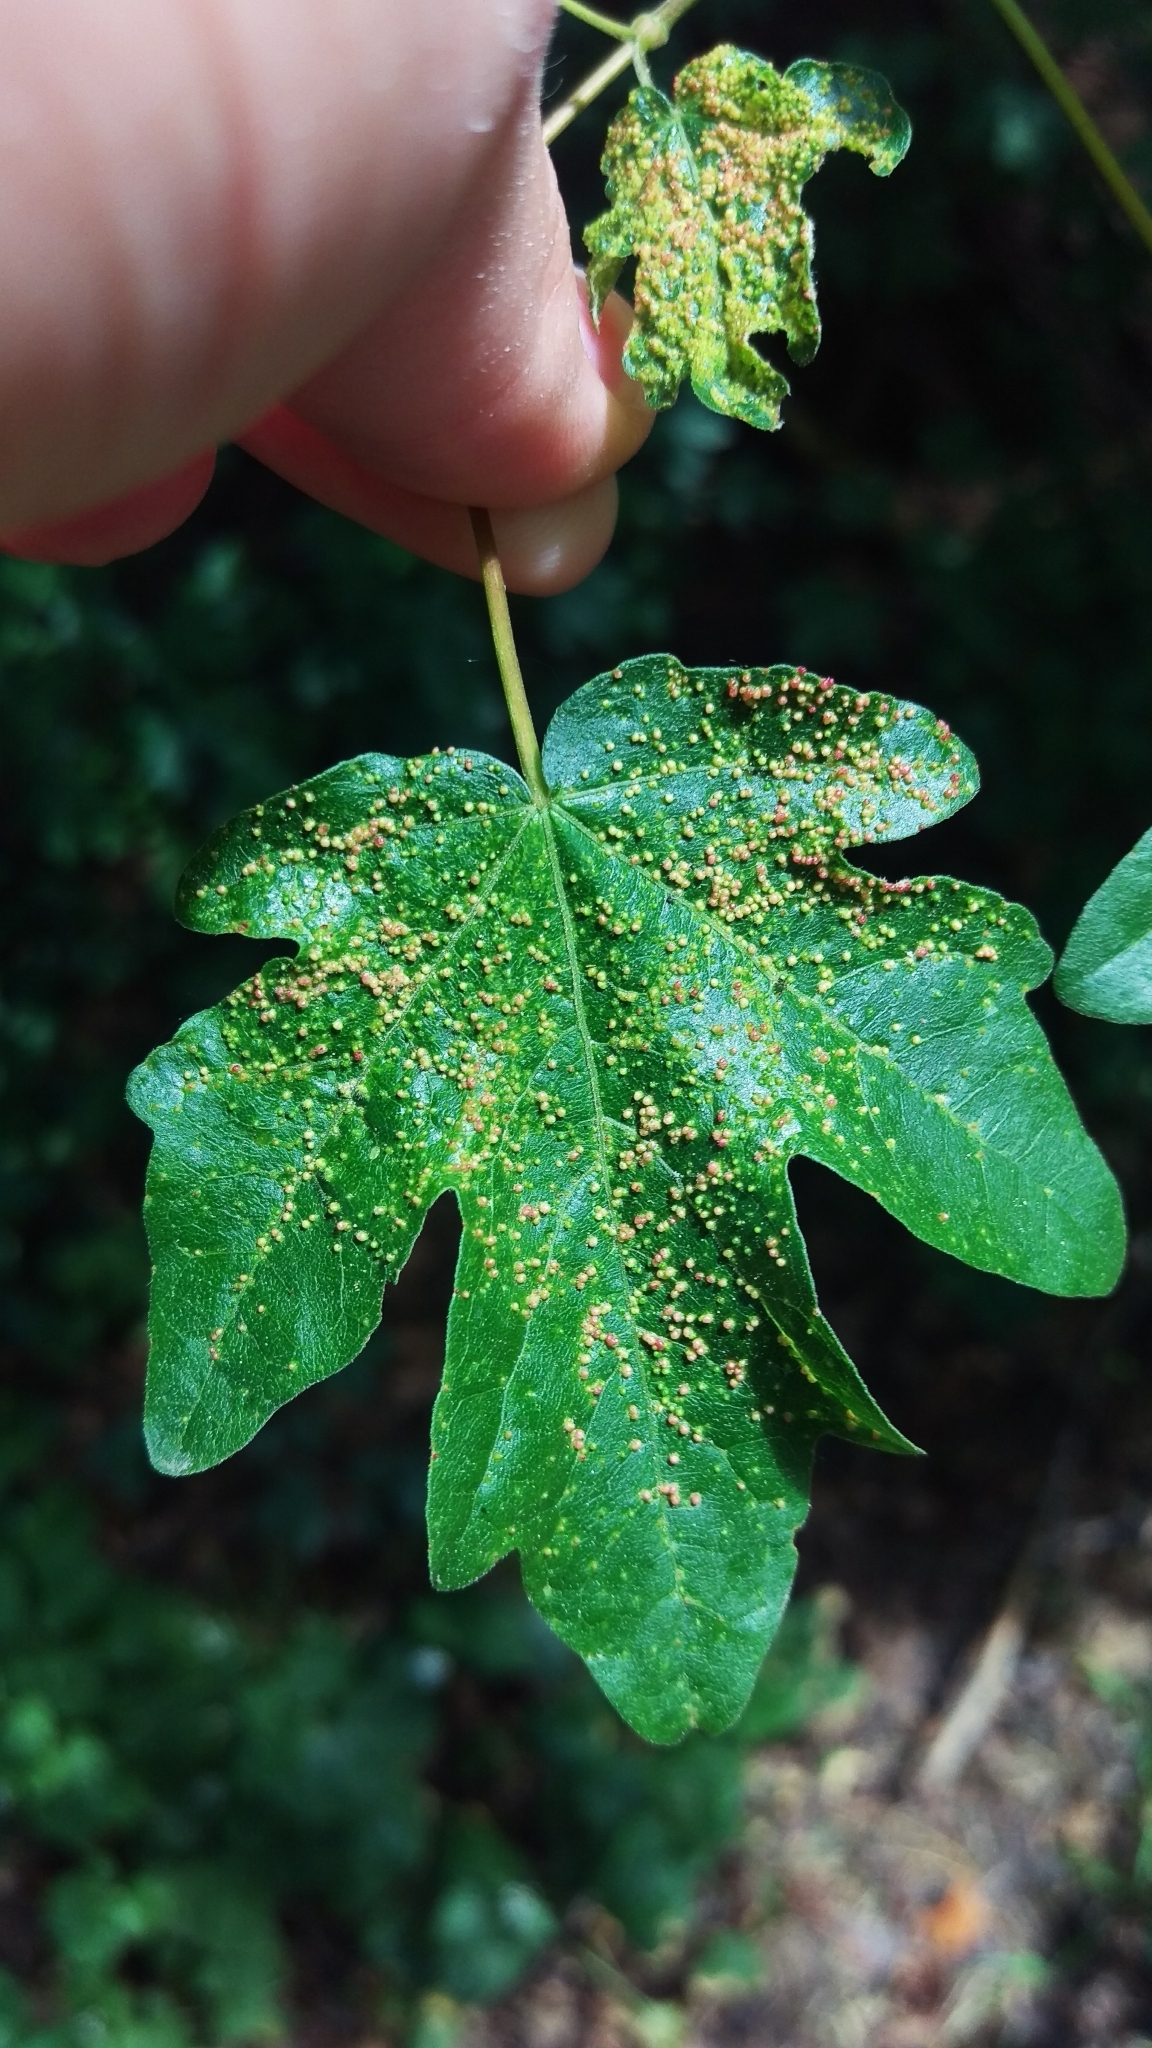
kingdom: Animalia
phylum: Arthropoda
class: Arachnida
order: Trombidiformes
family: Eriophyidae
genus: Aceria
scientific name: Aceria myriadeum
